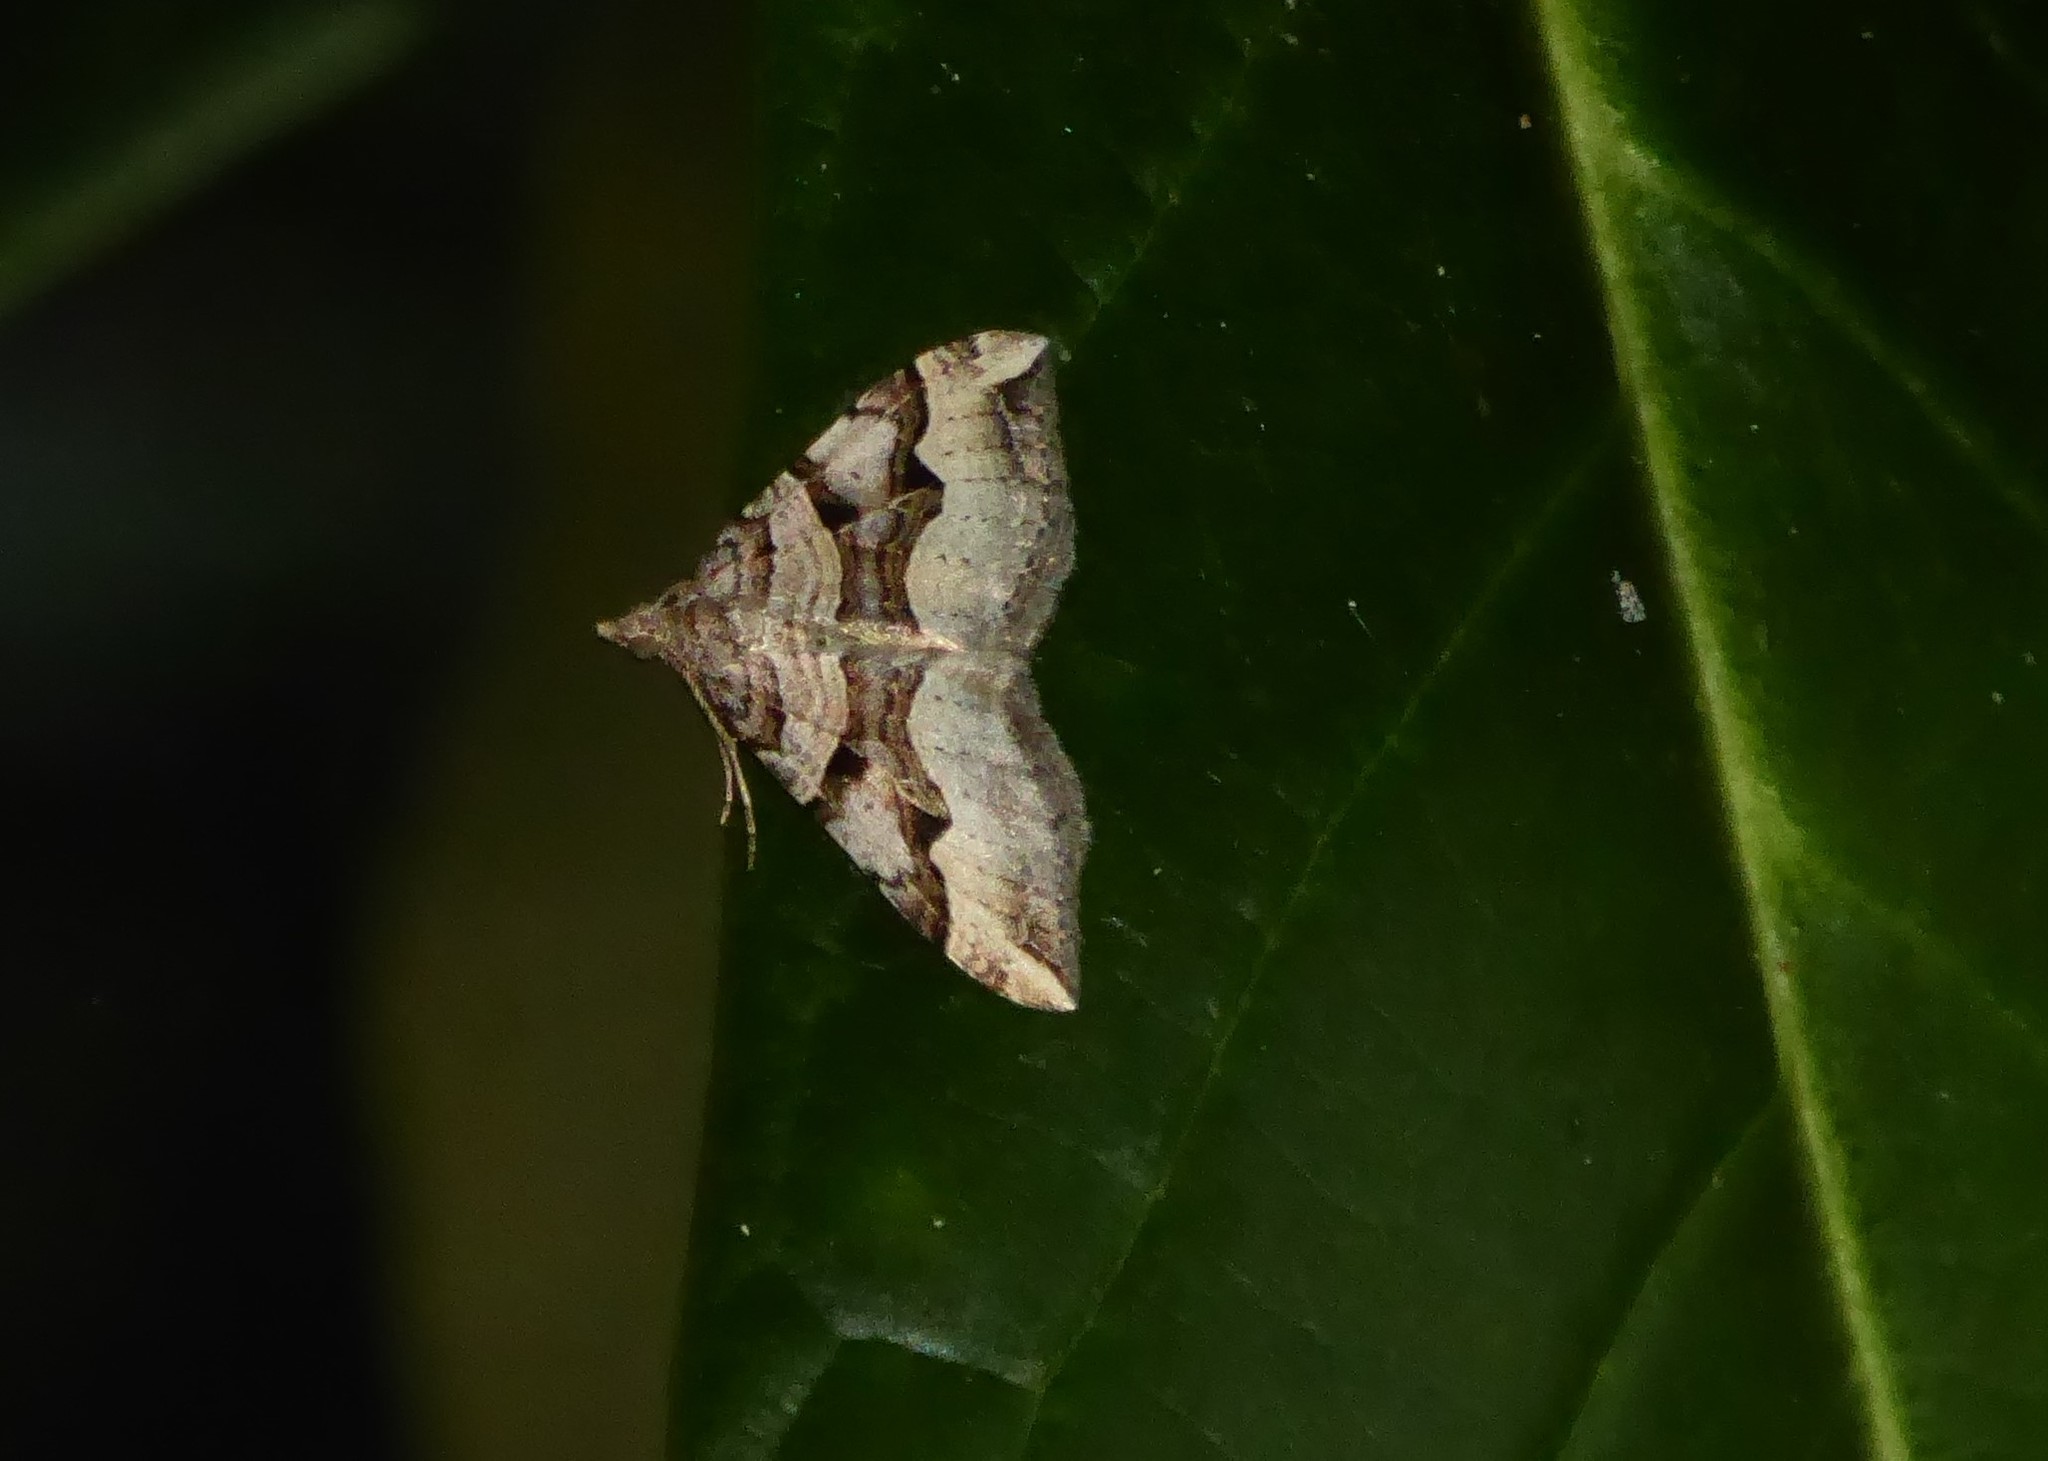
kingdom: Animalia
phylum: Arthropoda
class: Insecta
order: Lepidoptera
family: Geometridae
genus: Xanthorhoe
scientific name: Xanthorhoe semifissata
